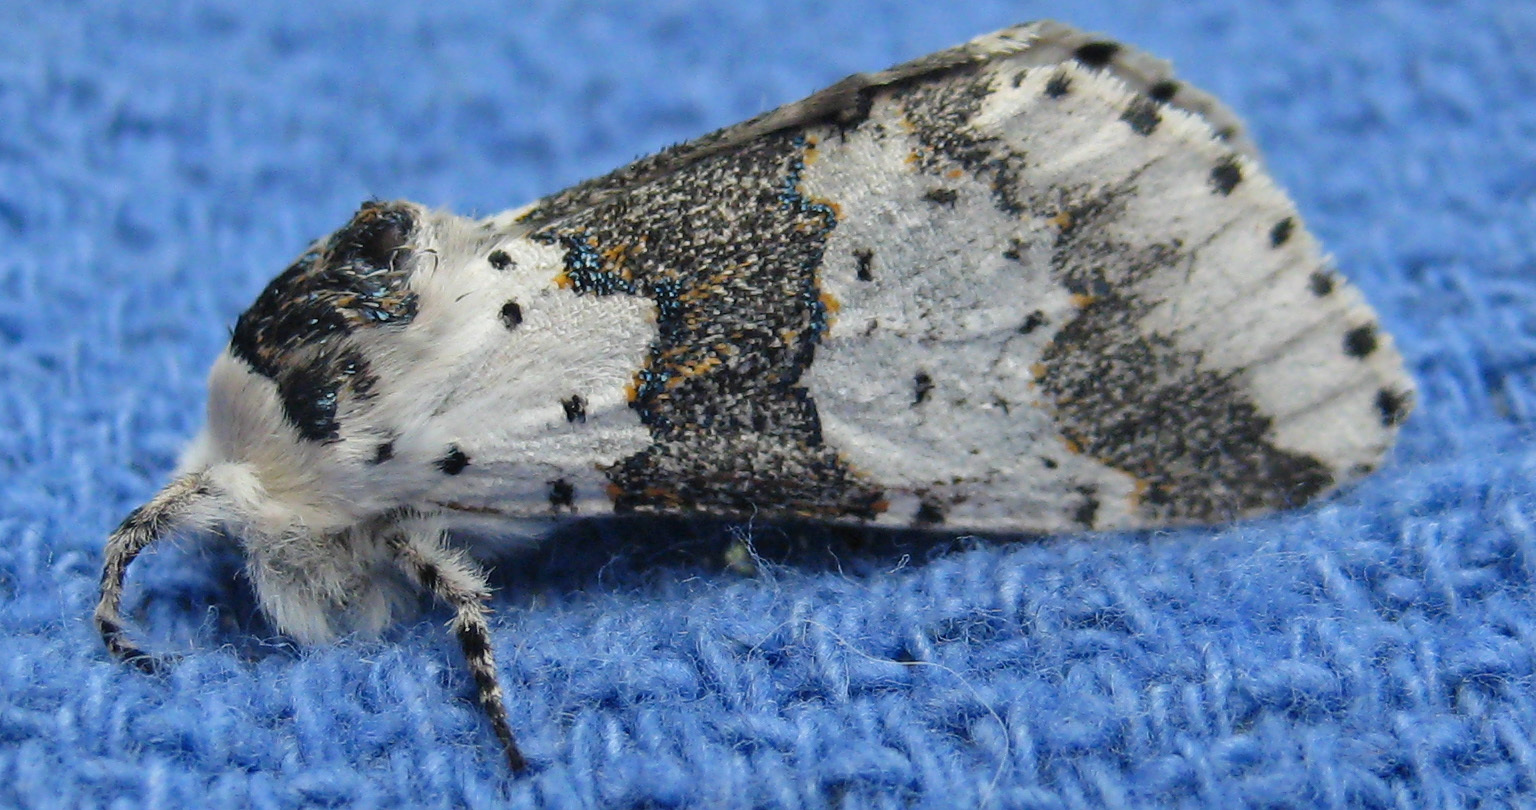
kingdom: Animalia
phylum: Arthropoda
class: Insecta
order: Lepidoptera
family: Notodontidae
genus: Furcula
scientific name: Furcula borealis
